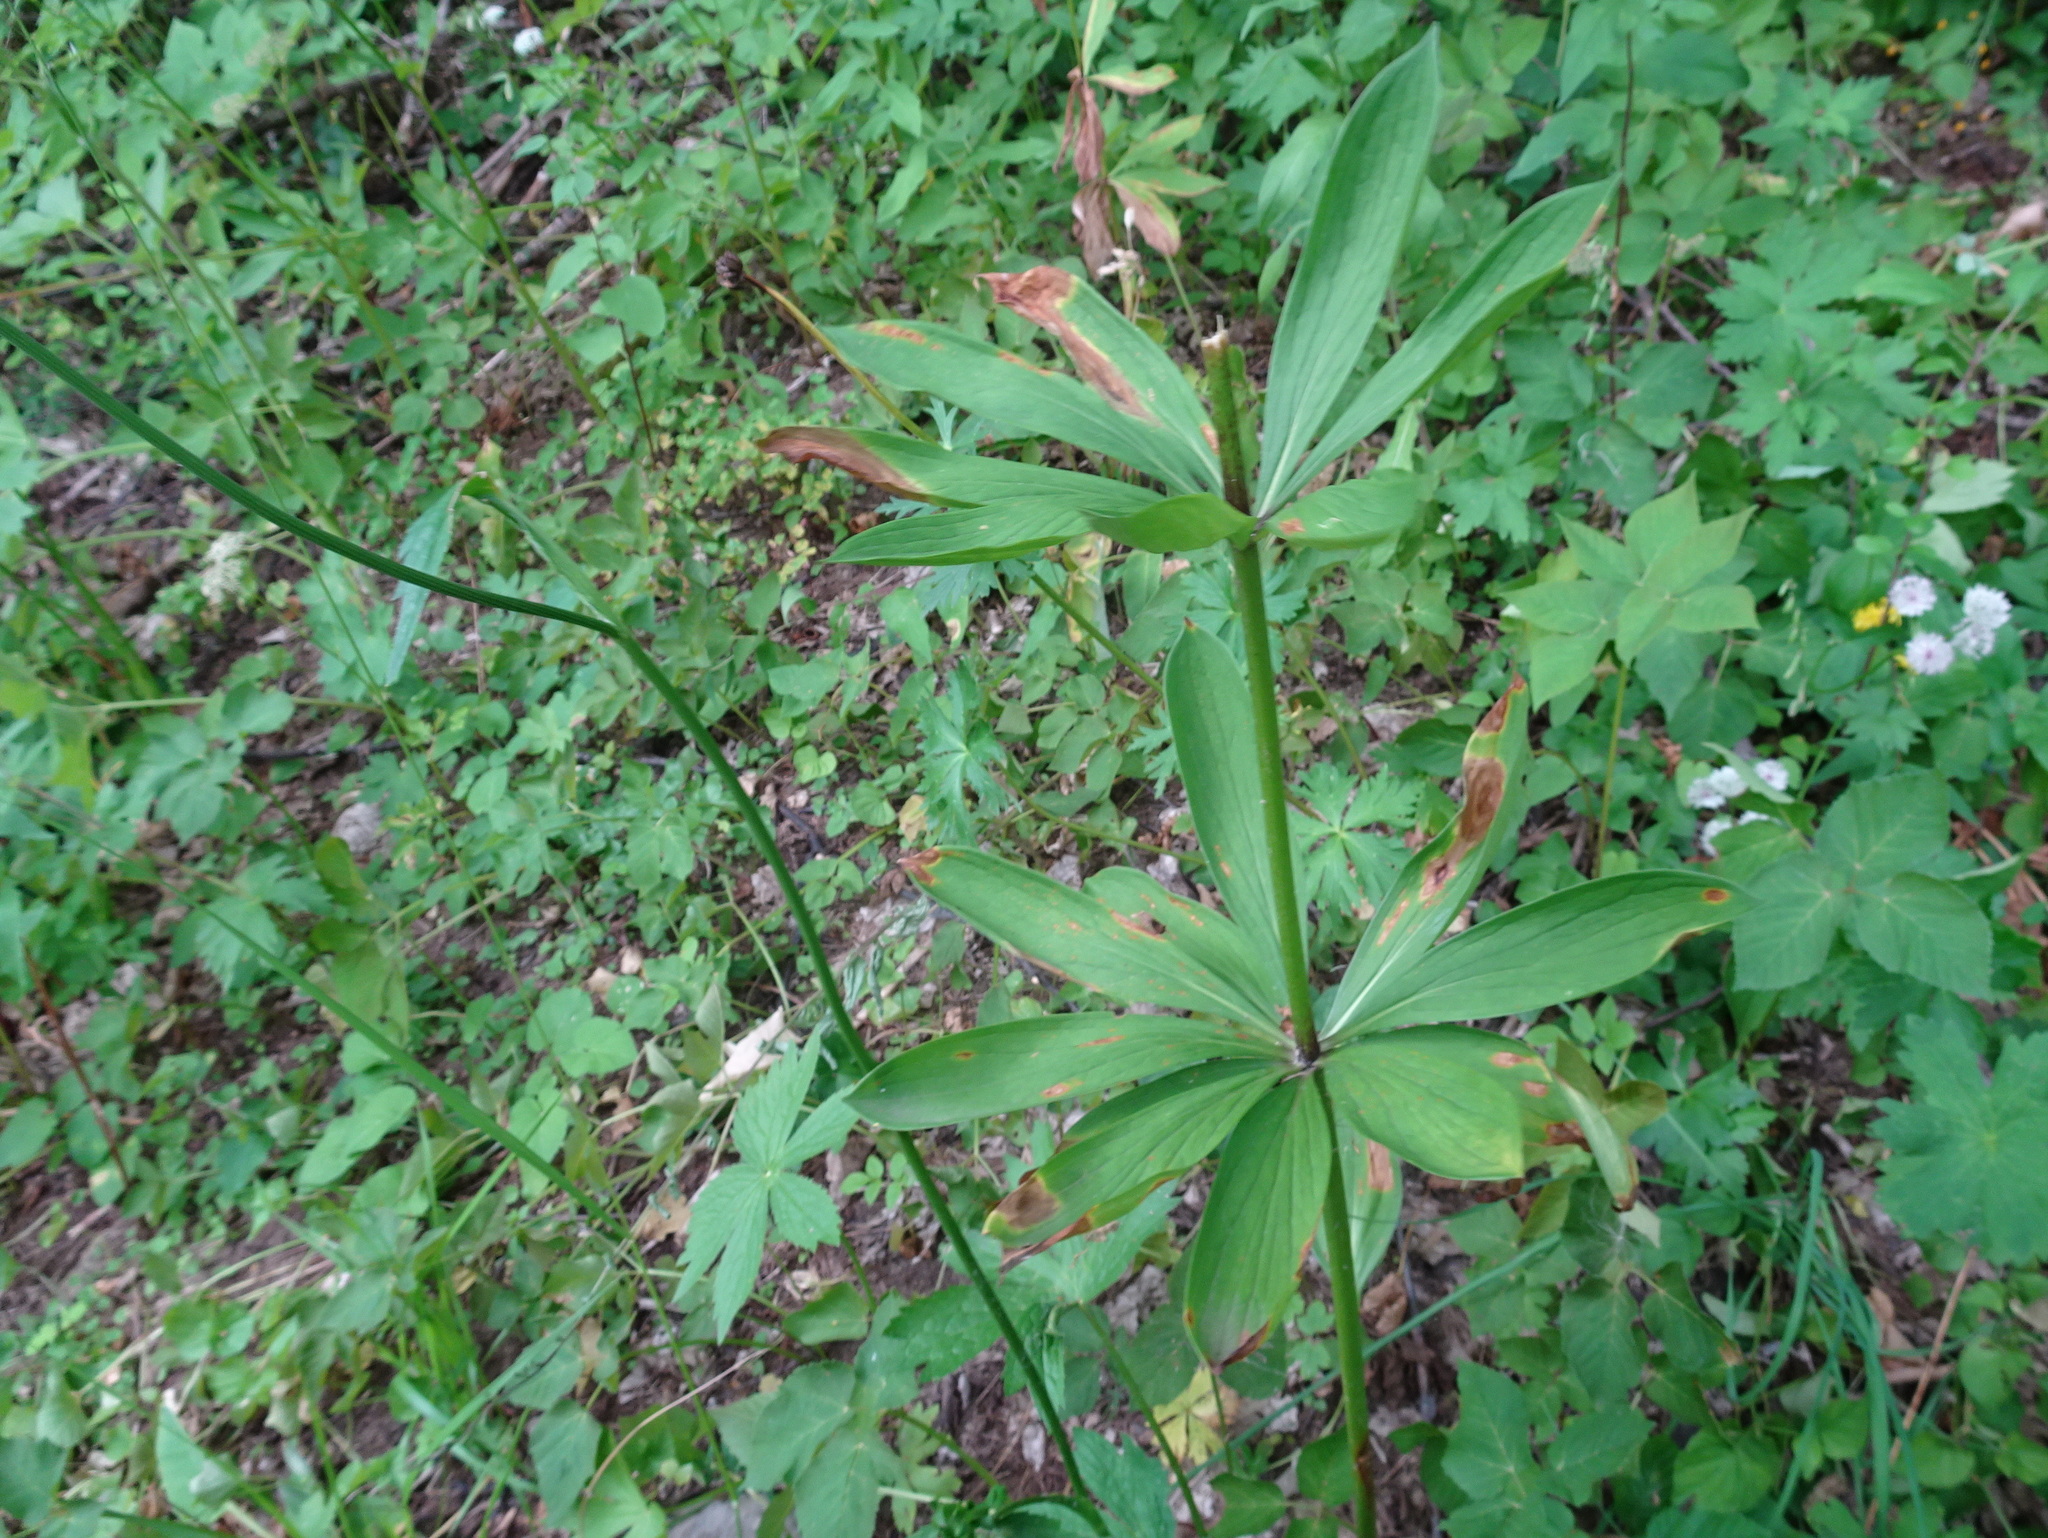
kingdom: Plantae
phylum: Tracheophyta
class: Liliopsida
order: Liliales
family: Liliaceae
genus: Lilium
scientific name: Lilium martagon
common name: Martagon lily
